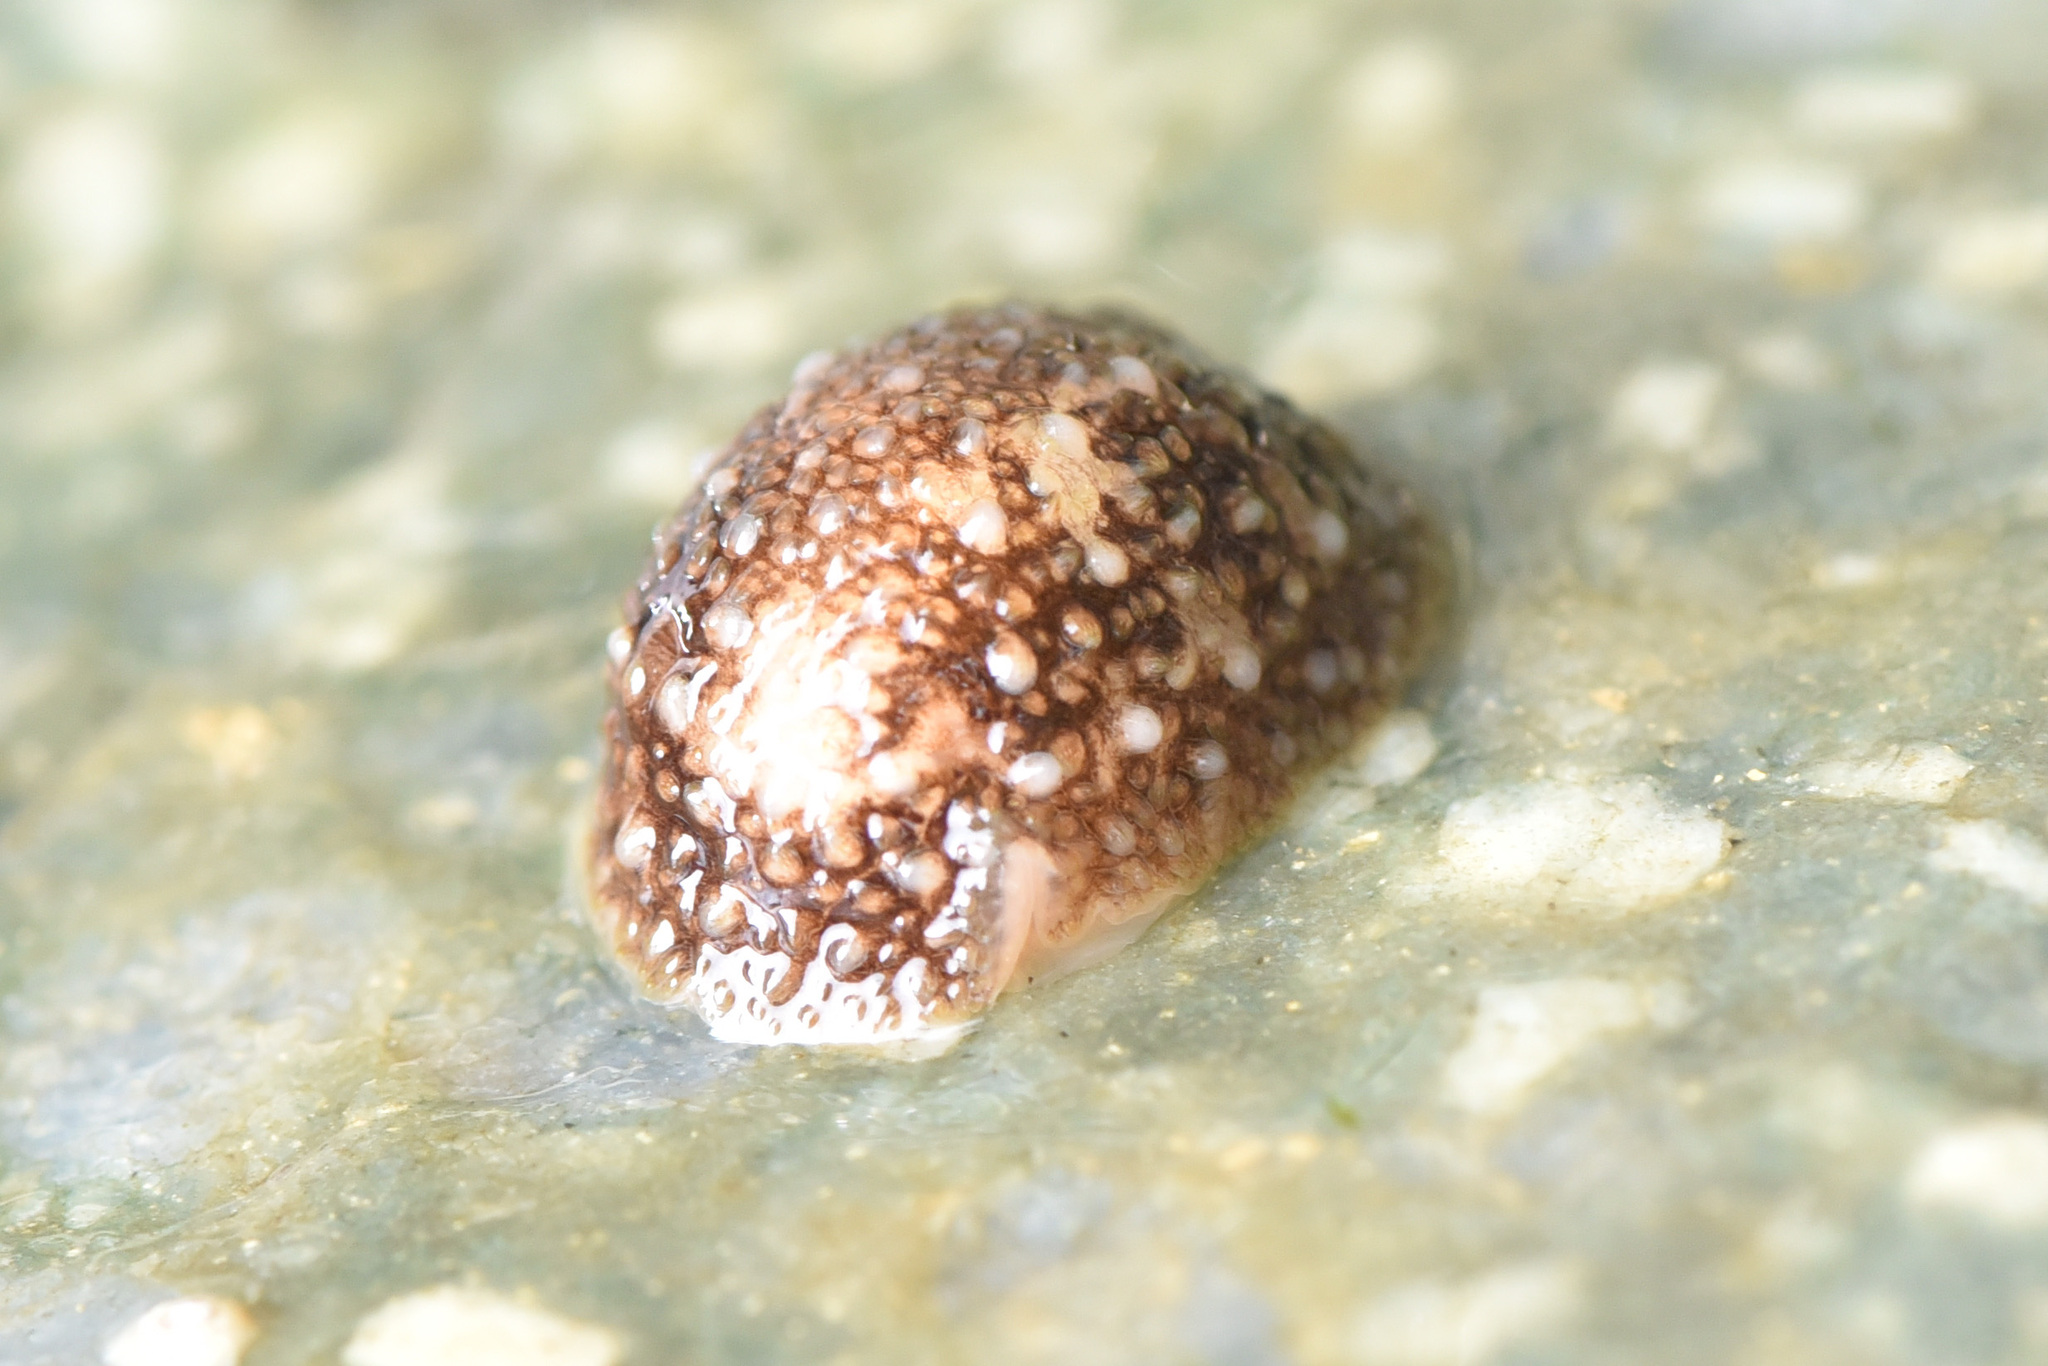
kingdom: Animalia
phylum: Mollusca
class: Gastropoda
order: Nudibranchia
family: Onchidorididae
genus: Onchidoris
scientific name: Onchidoris bilamellata
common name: Barnacle-eating onchidoris
